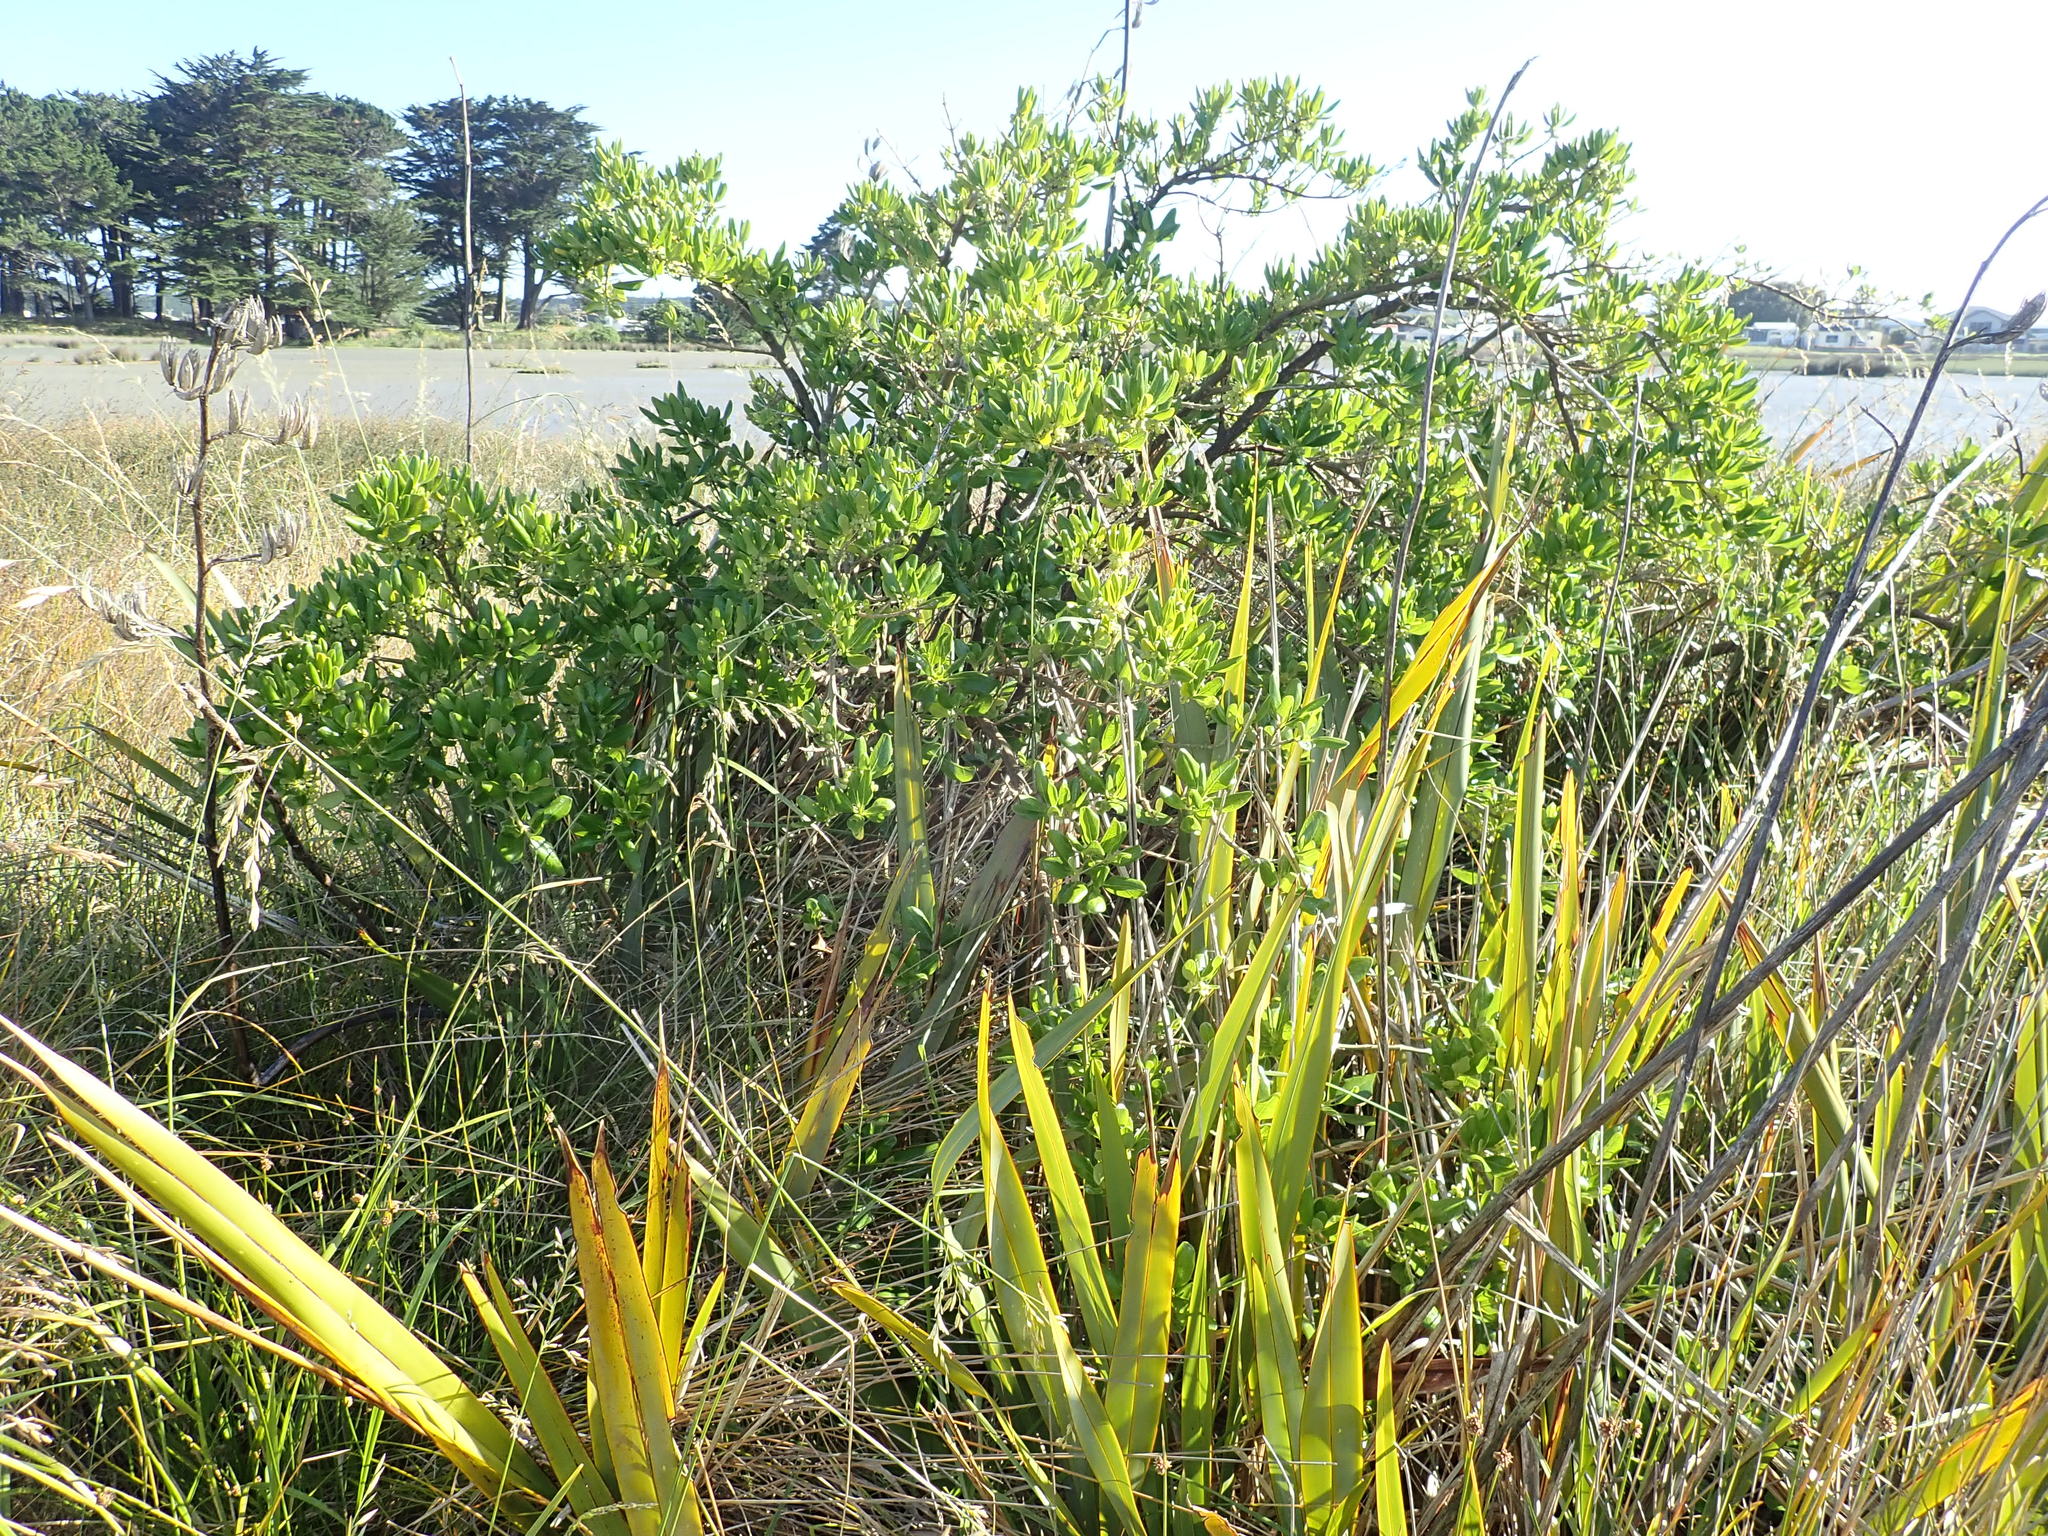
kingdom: Plantae
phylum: Tracheophyta
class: Magnoliopsida
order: Gentianales
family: Rubiaceae
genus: Coprosma
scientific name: Coprosma repens
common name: Tree bedstraw
